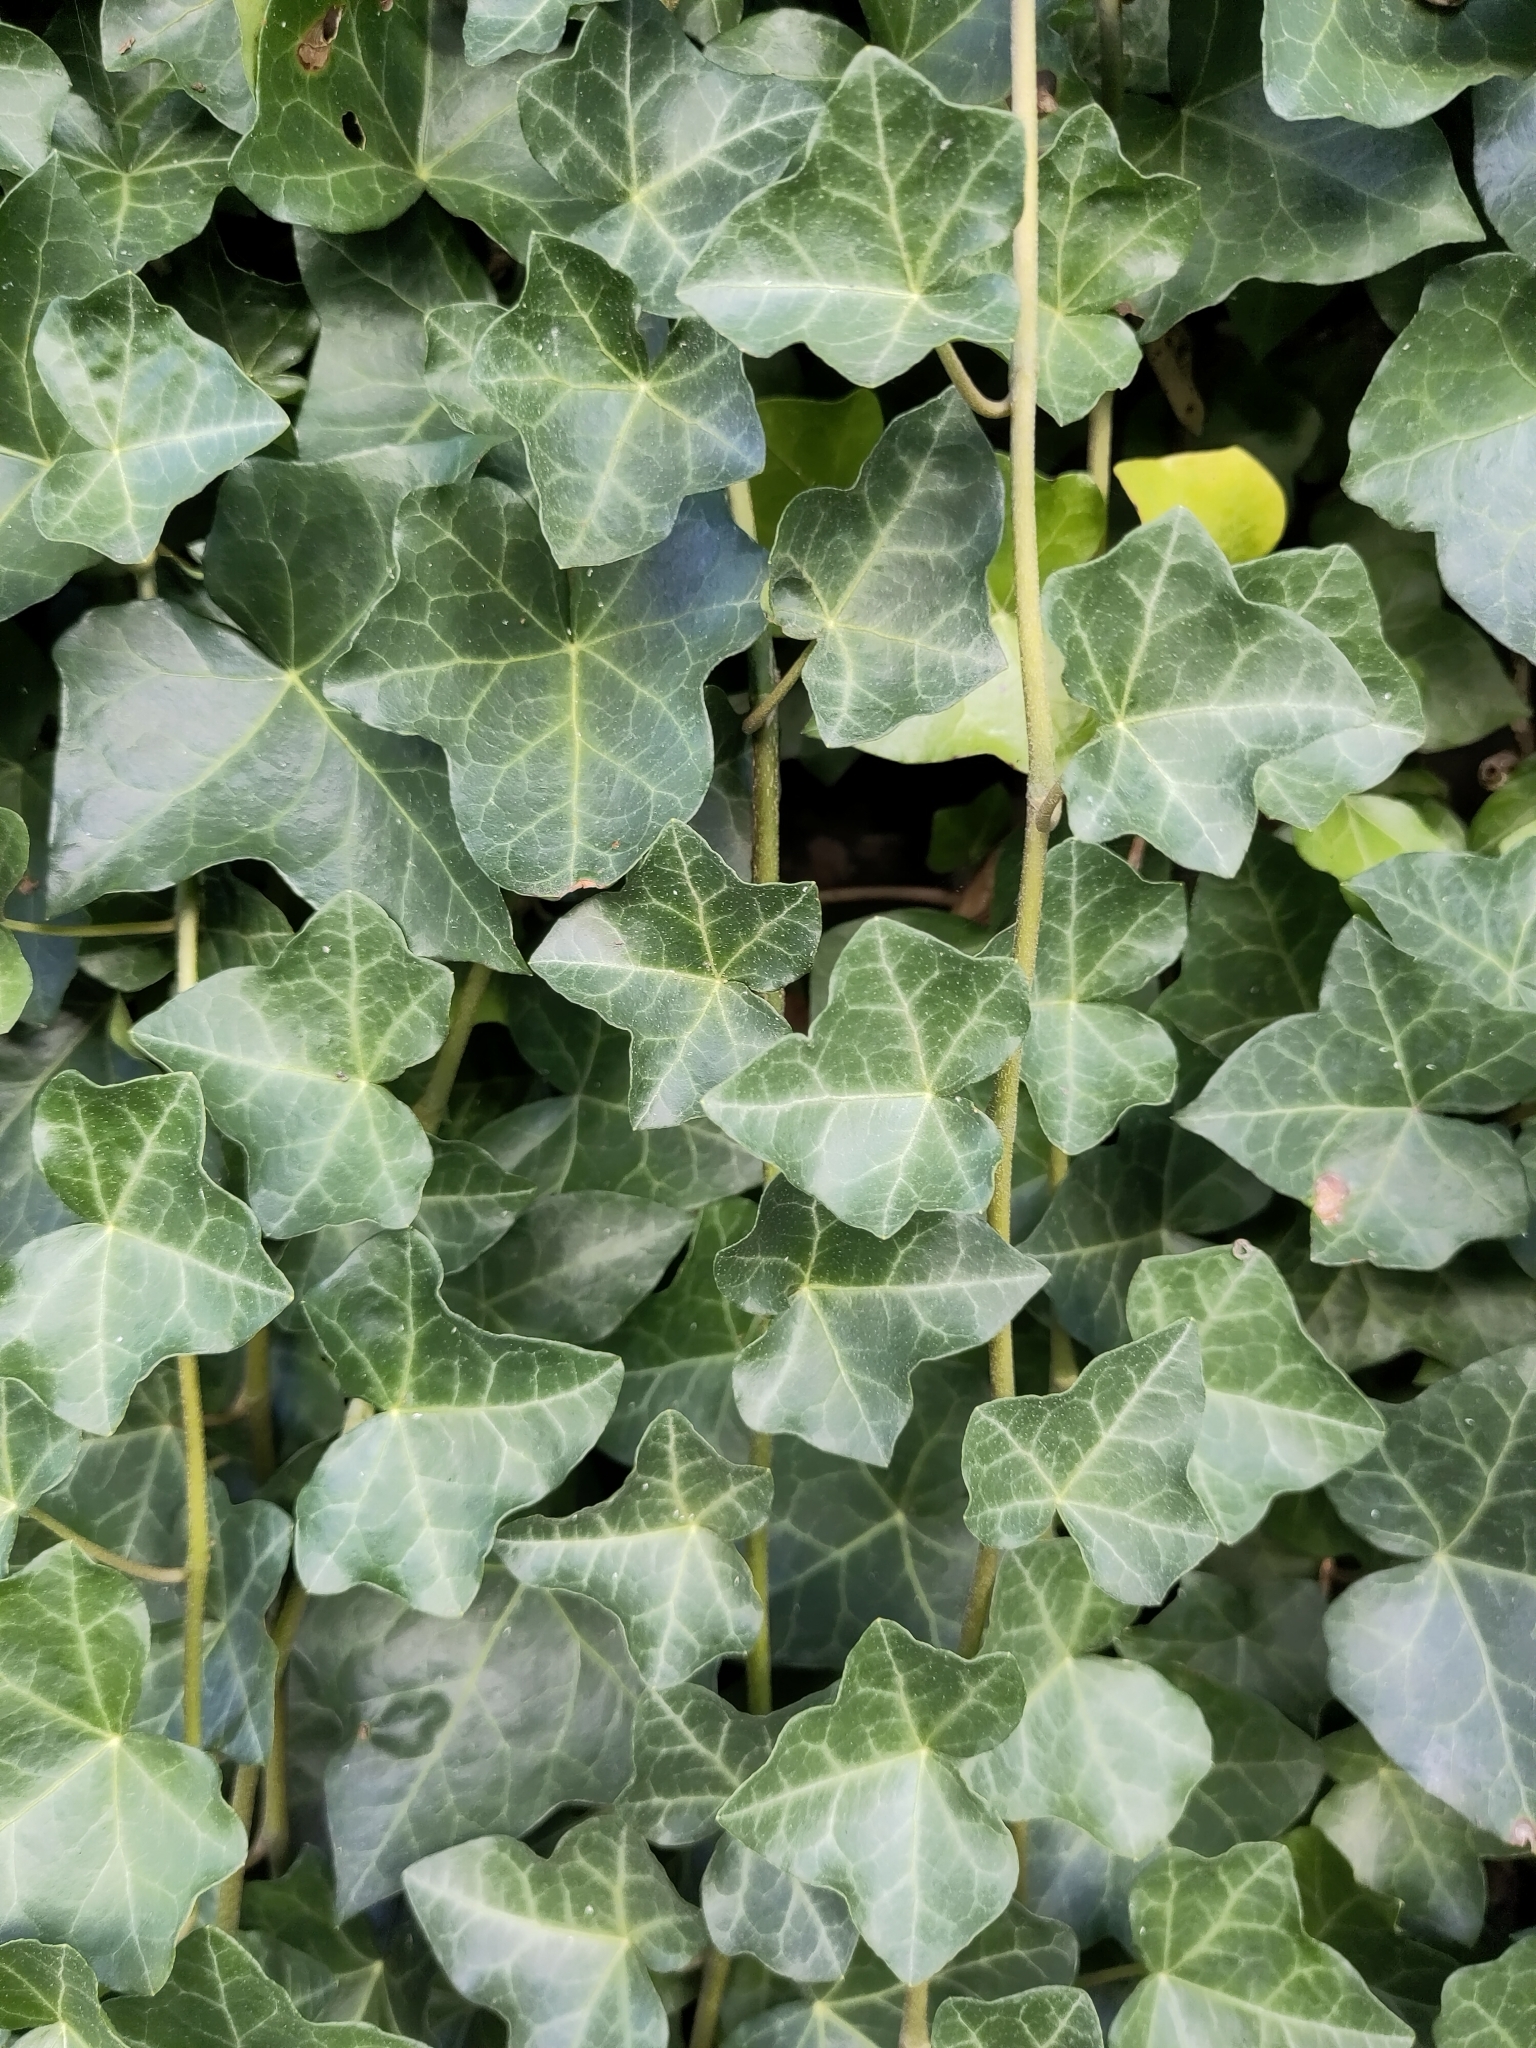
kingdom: Plantae
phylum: Tracheophyta
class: Magnoliopsida
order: Apiales
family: Araliaceae
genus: Hedera
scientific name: Hedera helix
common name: Ivy
